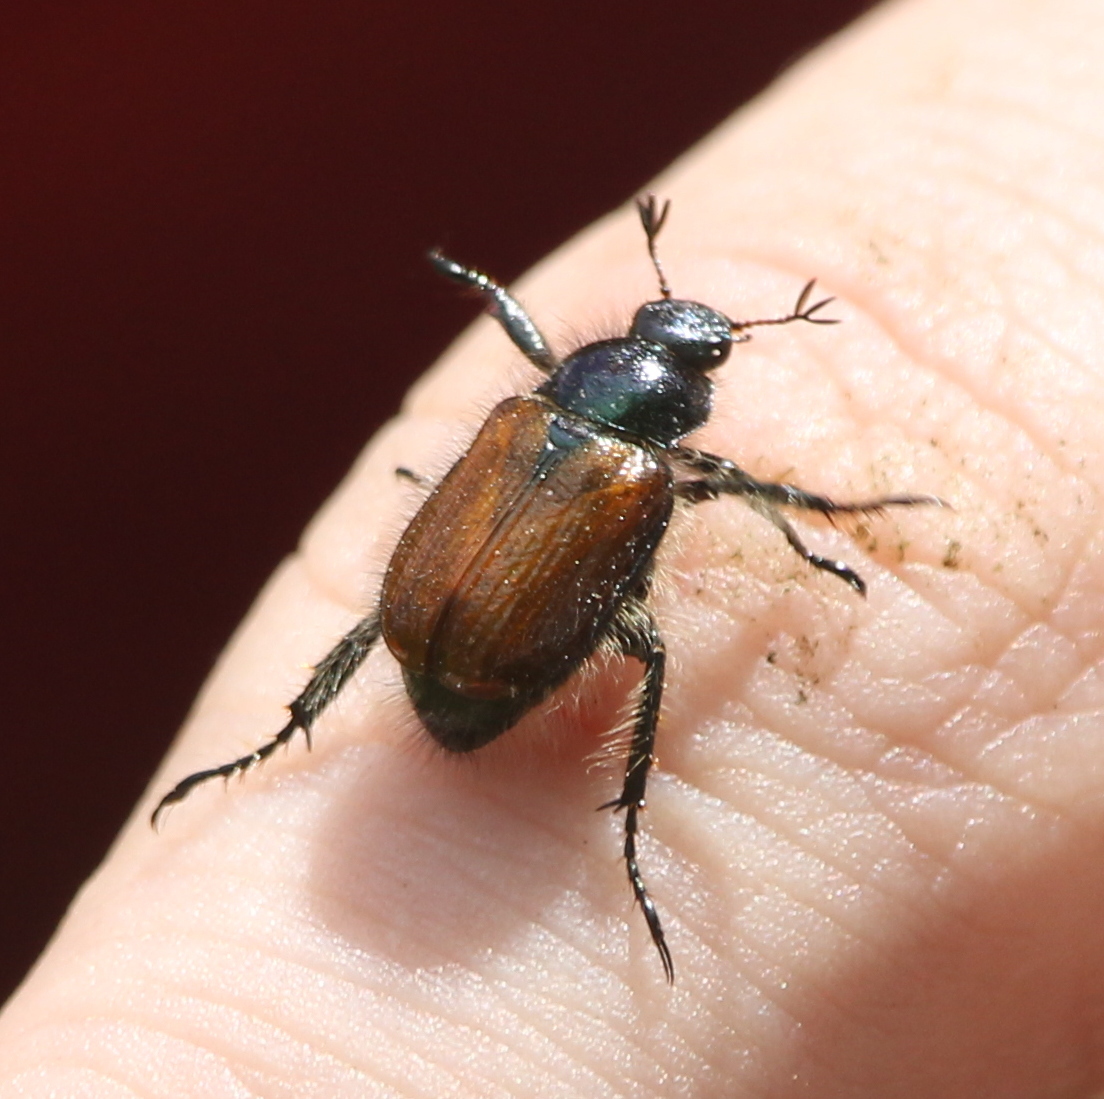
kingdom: Animalia
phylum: Arthropoda
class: Insecta
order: Coleoptera
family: Scarabaeidae
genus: Phyllopertha
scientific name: Phyllopertha horticola
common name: Garden chafer
